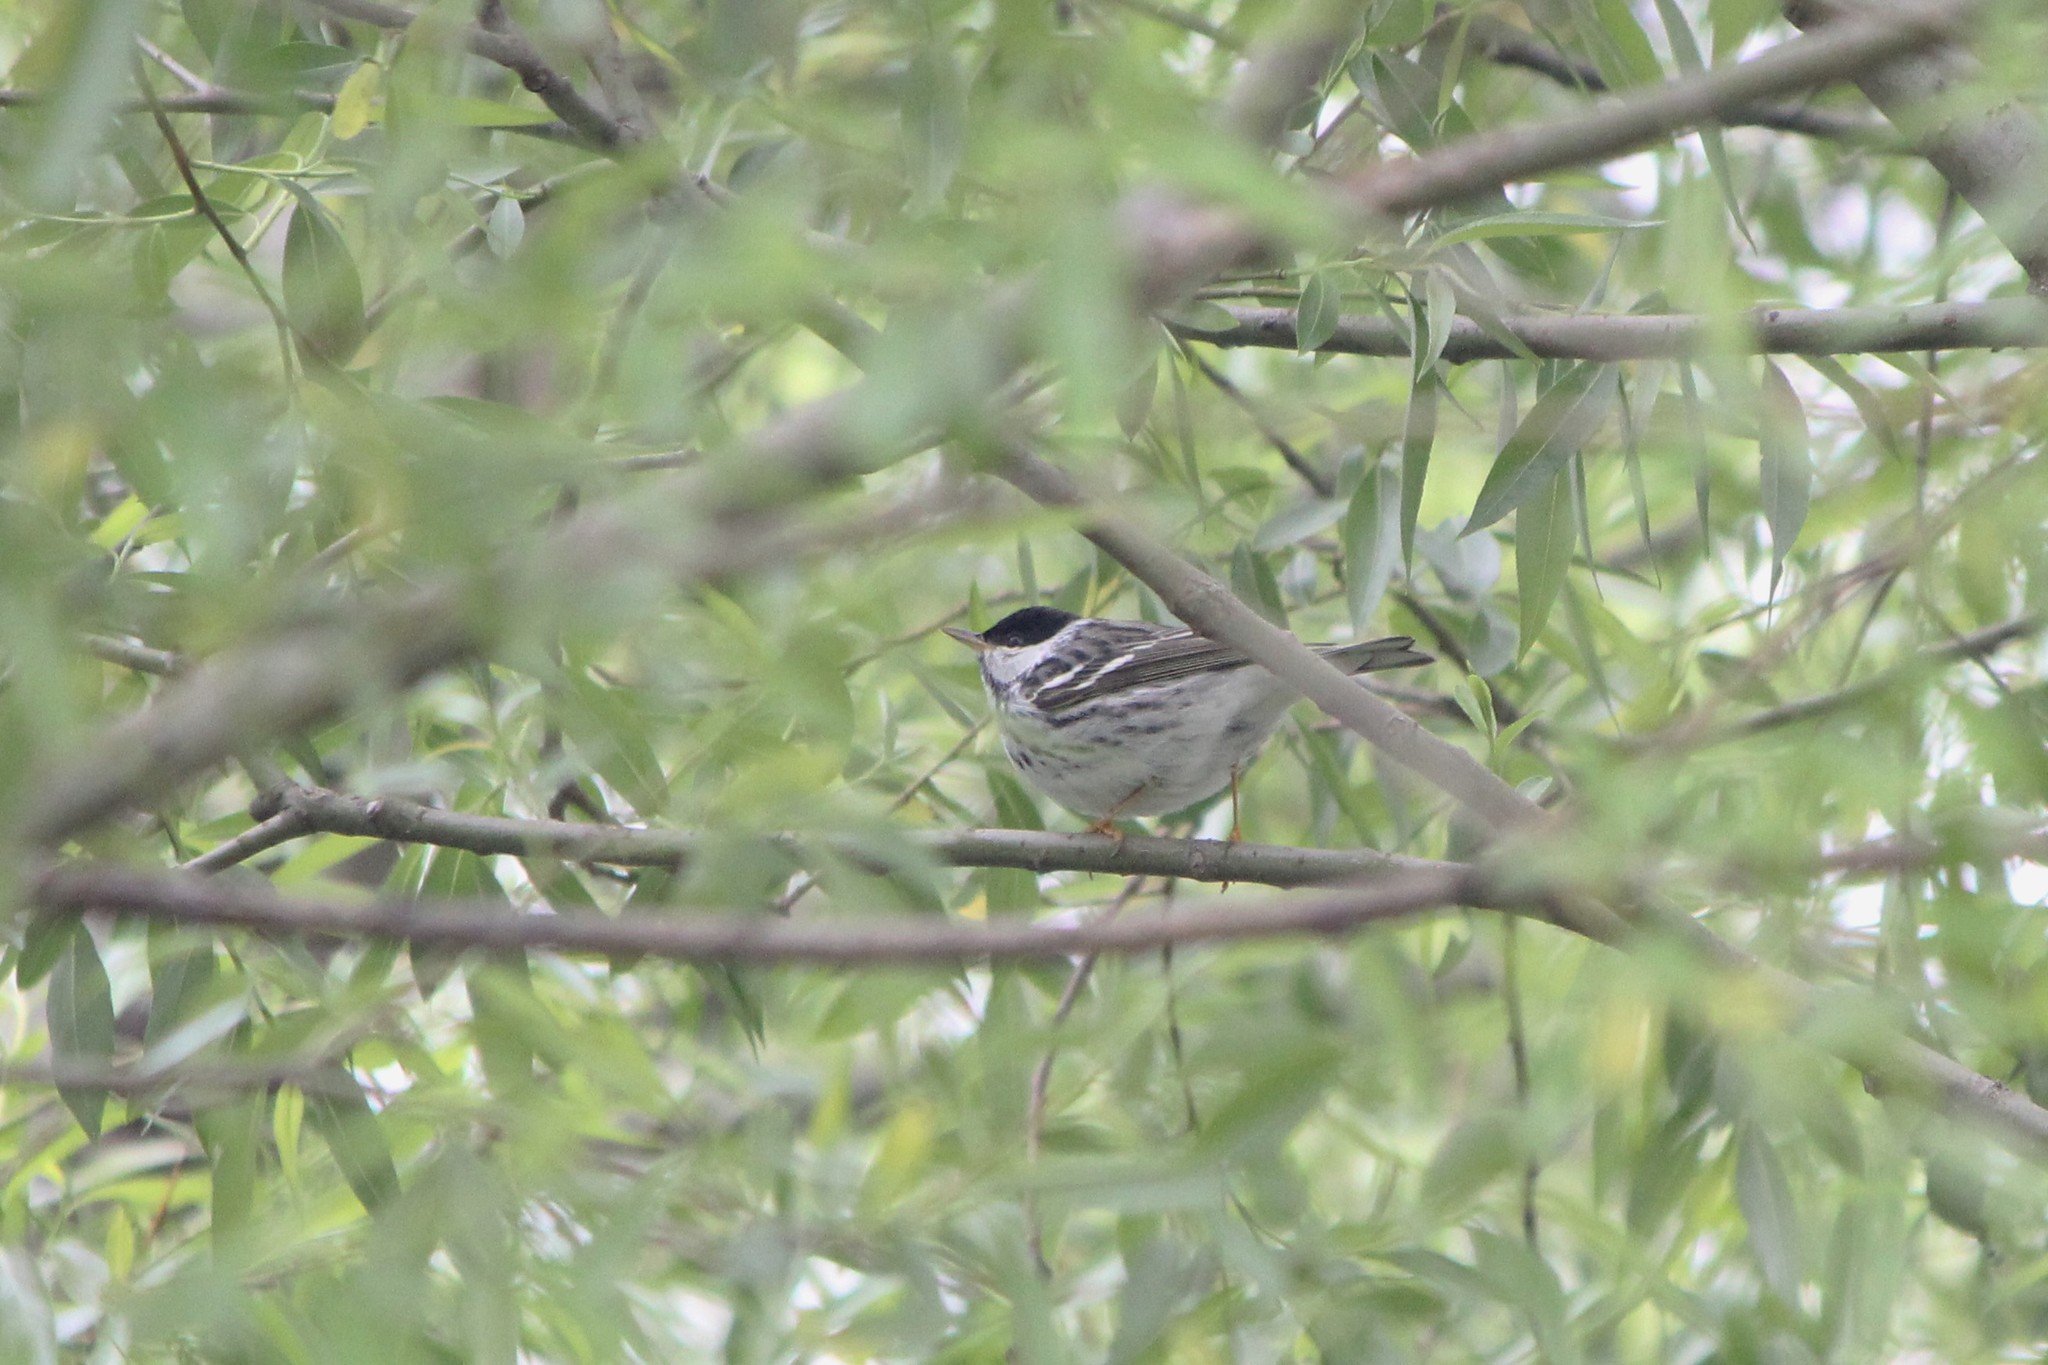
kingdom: Animalia
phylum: Chordata
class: Aves
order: Passeriformes
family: Parulidae
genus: Setophaga
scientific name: Setophaga striata
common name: Blackpoll warbler
